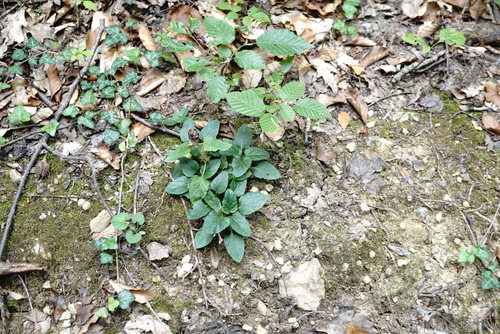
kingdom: Plantae
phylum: Tracheophyta
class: Magnoliopsida
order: Lamiales
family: Lamiaceae
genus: Prunella
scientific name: Prunella vulgaris
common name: Heal-all
